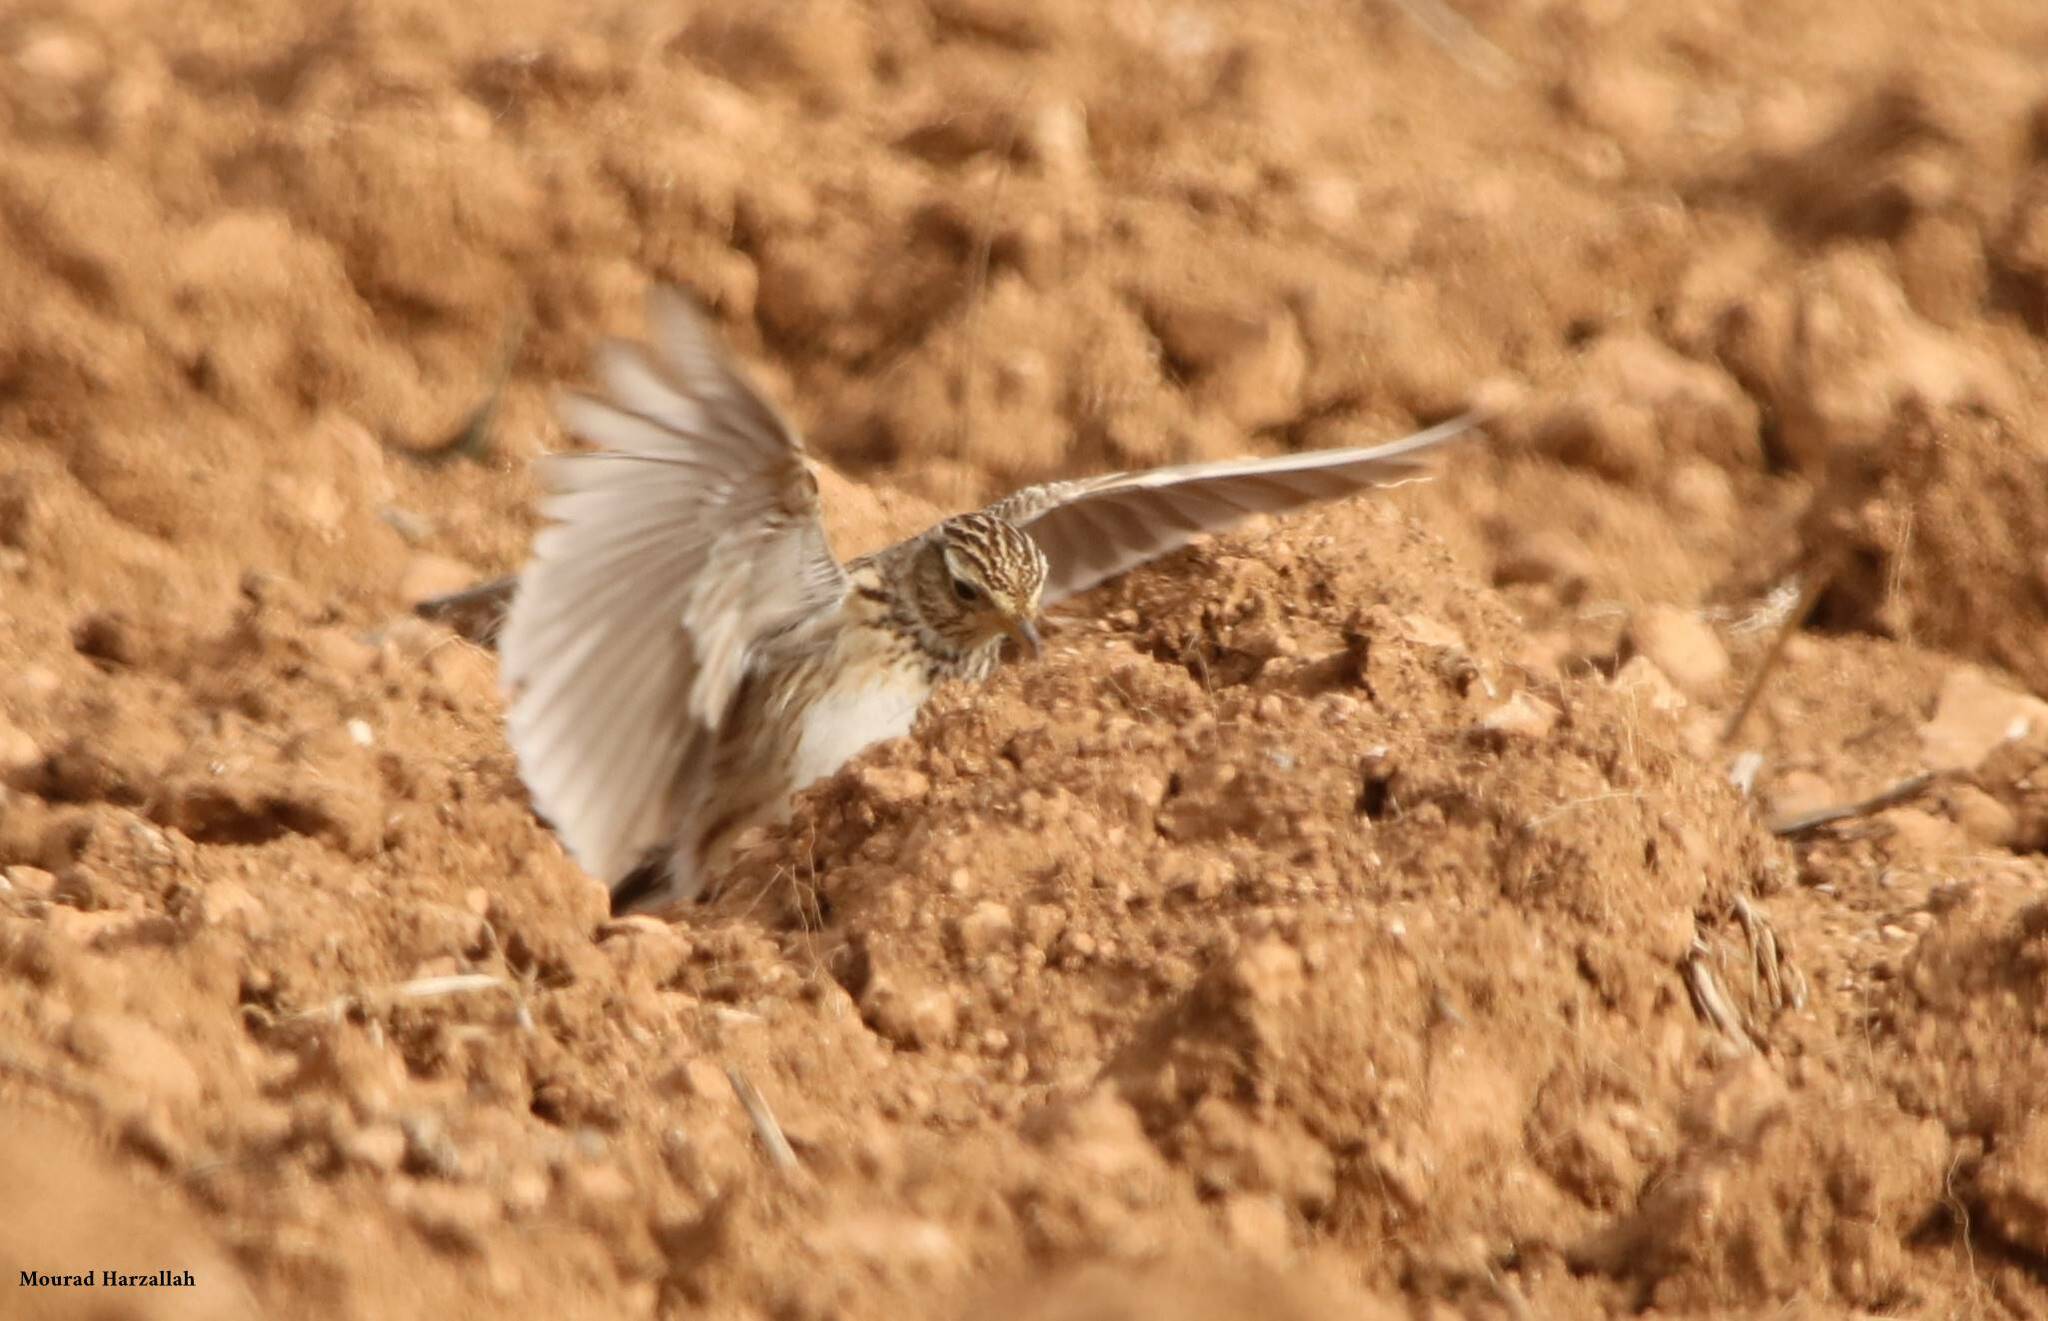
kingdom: Animalia
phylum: Chordata
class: Aves
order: Passeriformes
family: Alaudidae
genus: Alauda
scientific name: Alauda arvensis
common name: Eurasian skylark
